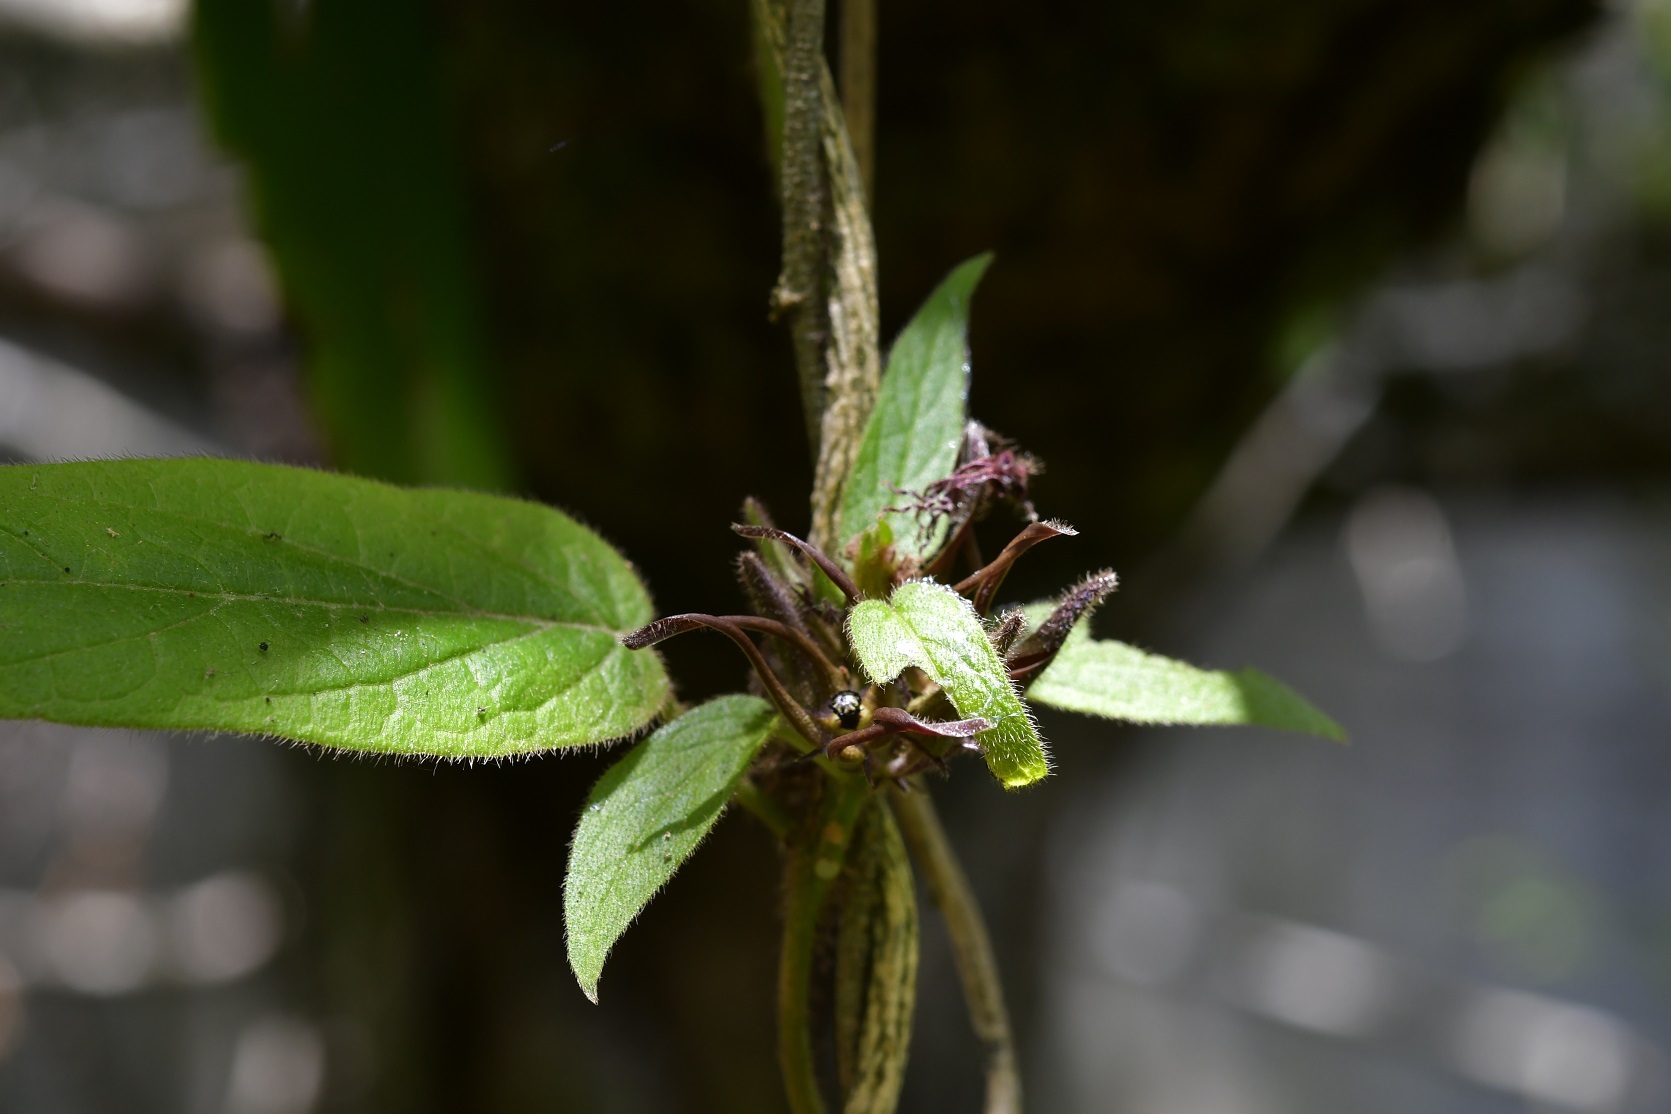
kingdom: Plantae
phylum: Tracheophyta
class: Magnoliopsida
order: Gentianales
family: Apocynaceae
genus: Matelea
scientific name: Matelea medusae
